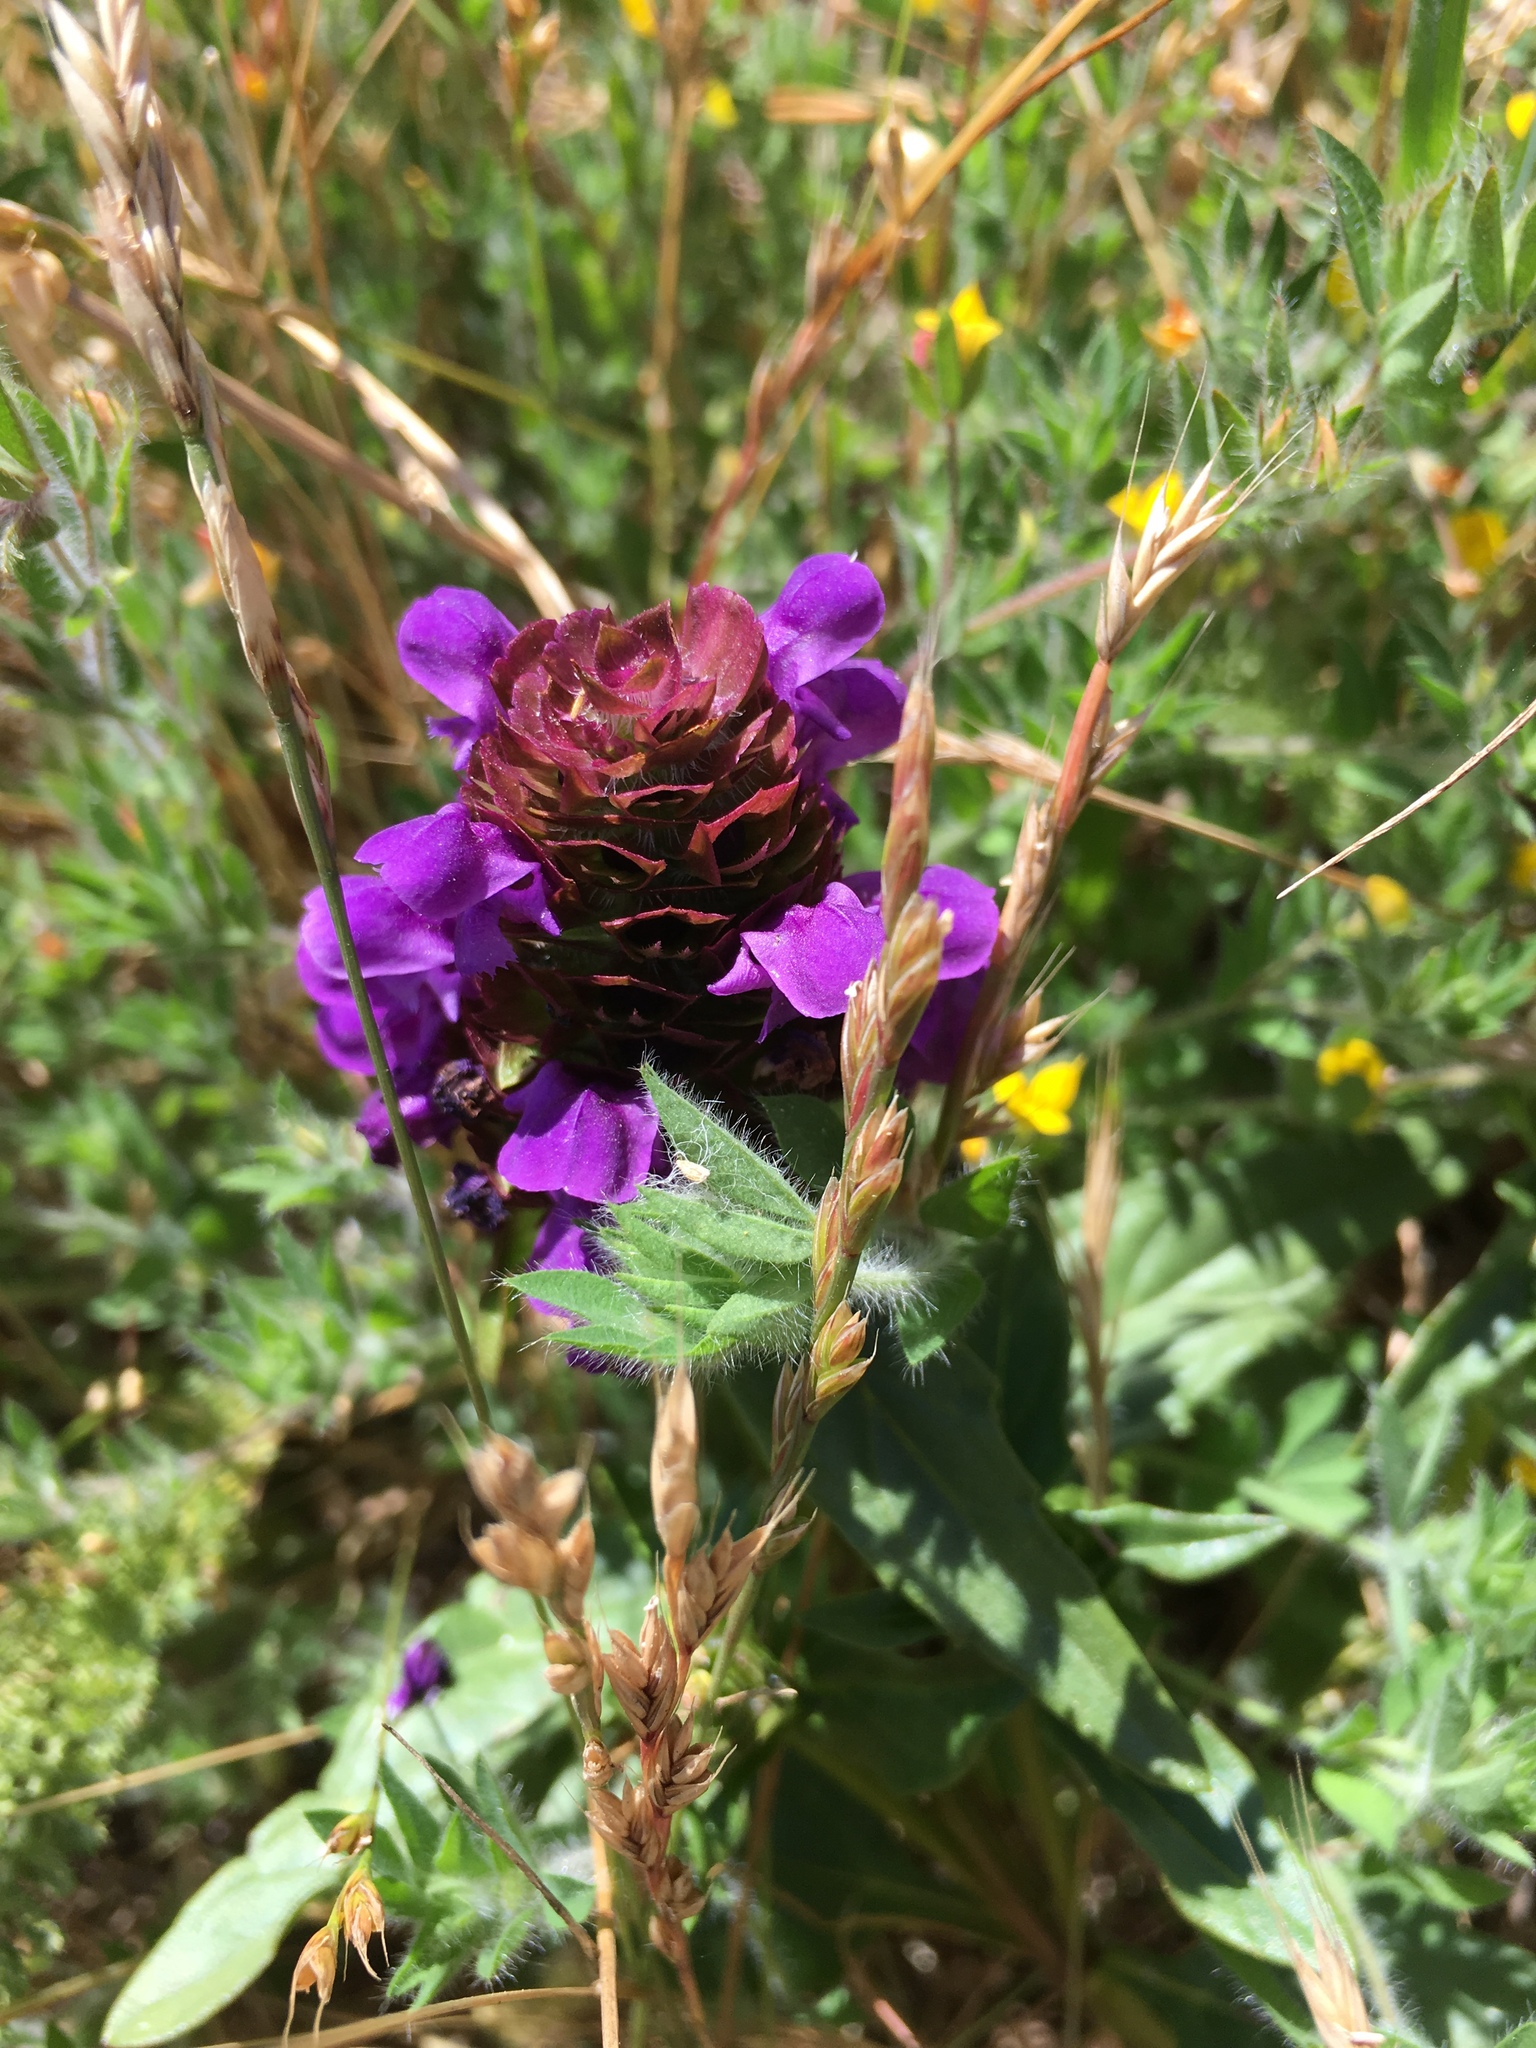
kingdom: Plantae
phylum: Tracheophyta
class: Magnoliopsida
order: Lamiales
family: Lamiaceae
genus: Prunella
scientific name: Prunella vulgaris
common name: Heal-all
